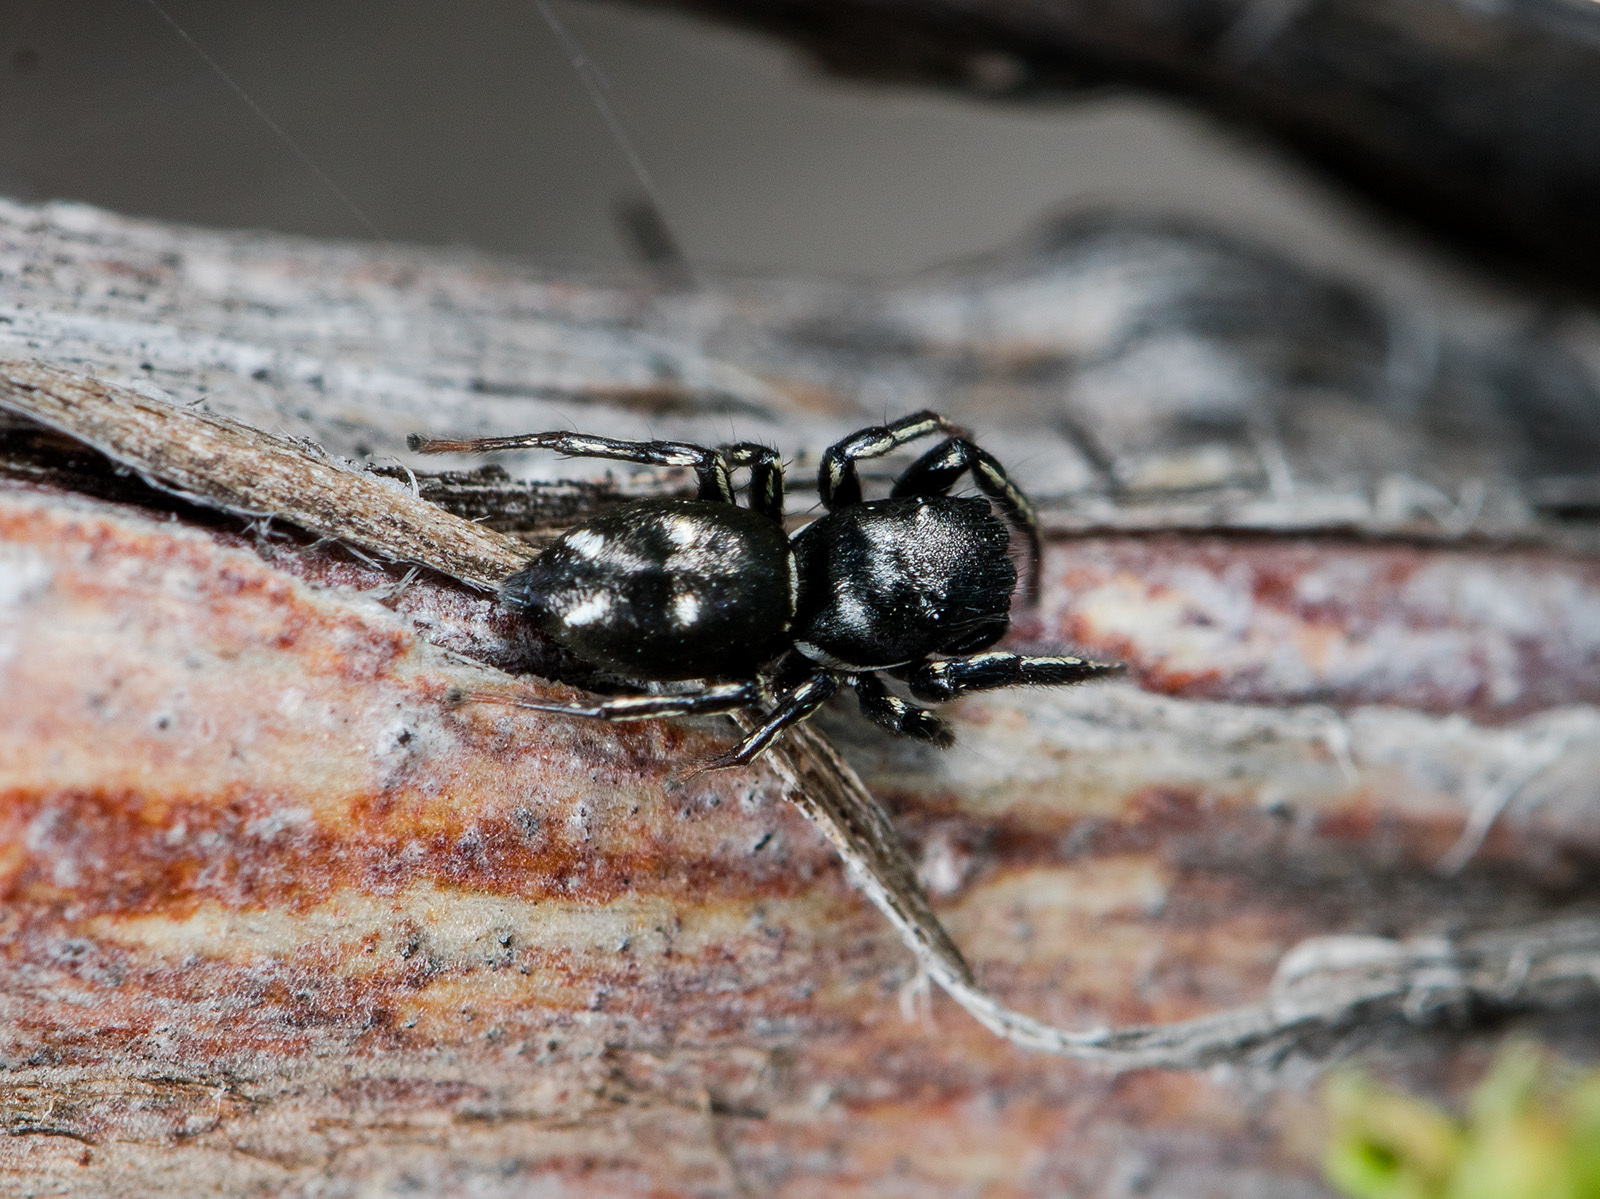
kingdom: Animalia
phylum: Arthropoda
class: Arachnida
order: Araneae
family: Salticidae
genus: Heliophanus
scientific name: Heliophanus chovdensis
